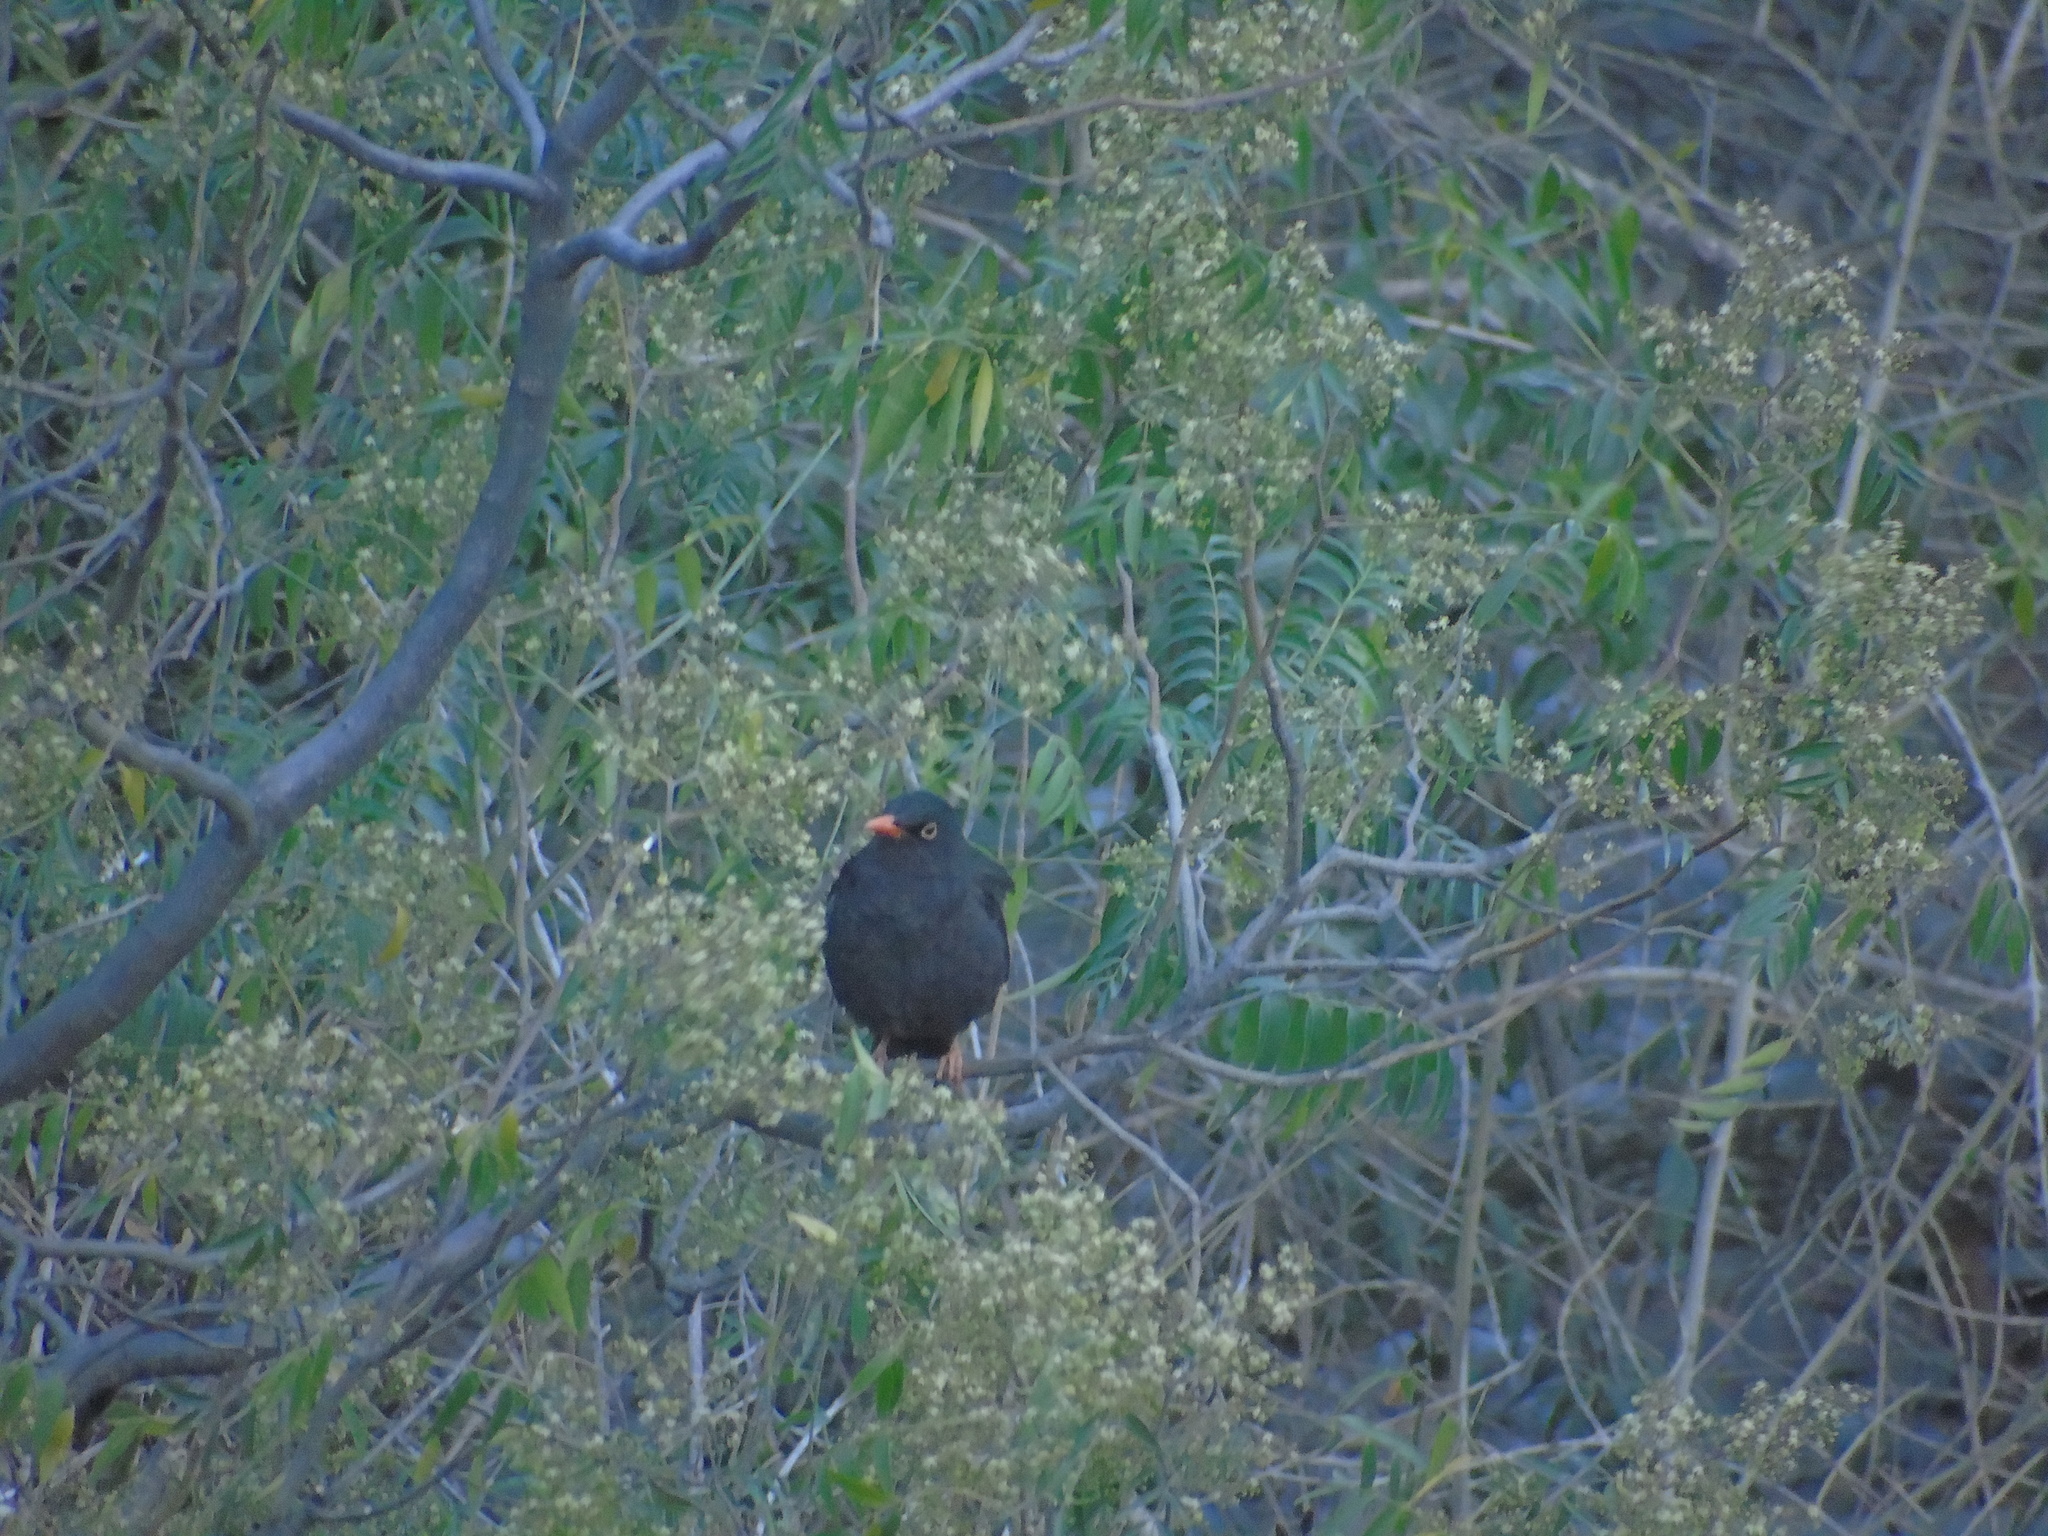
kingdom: Animalia
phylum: Chordata
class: Aves
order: Passeriformes
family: Turdidae
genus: Turdus
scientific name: Turdus chiguanco
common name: Chiguanco thrush
